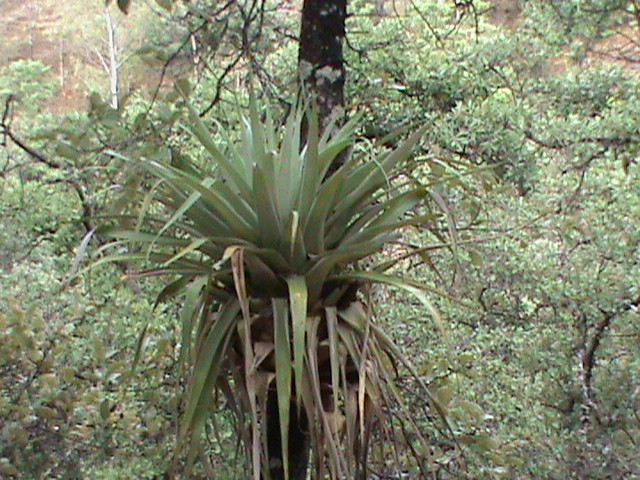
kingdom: Plantae
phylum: Tracheophyta
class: Liliopsida
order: Poales
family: Bromeliaceae
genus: Tillandsia
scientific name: Tillandsia prodigiosa
